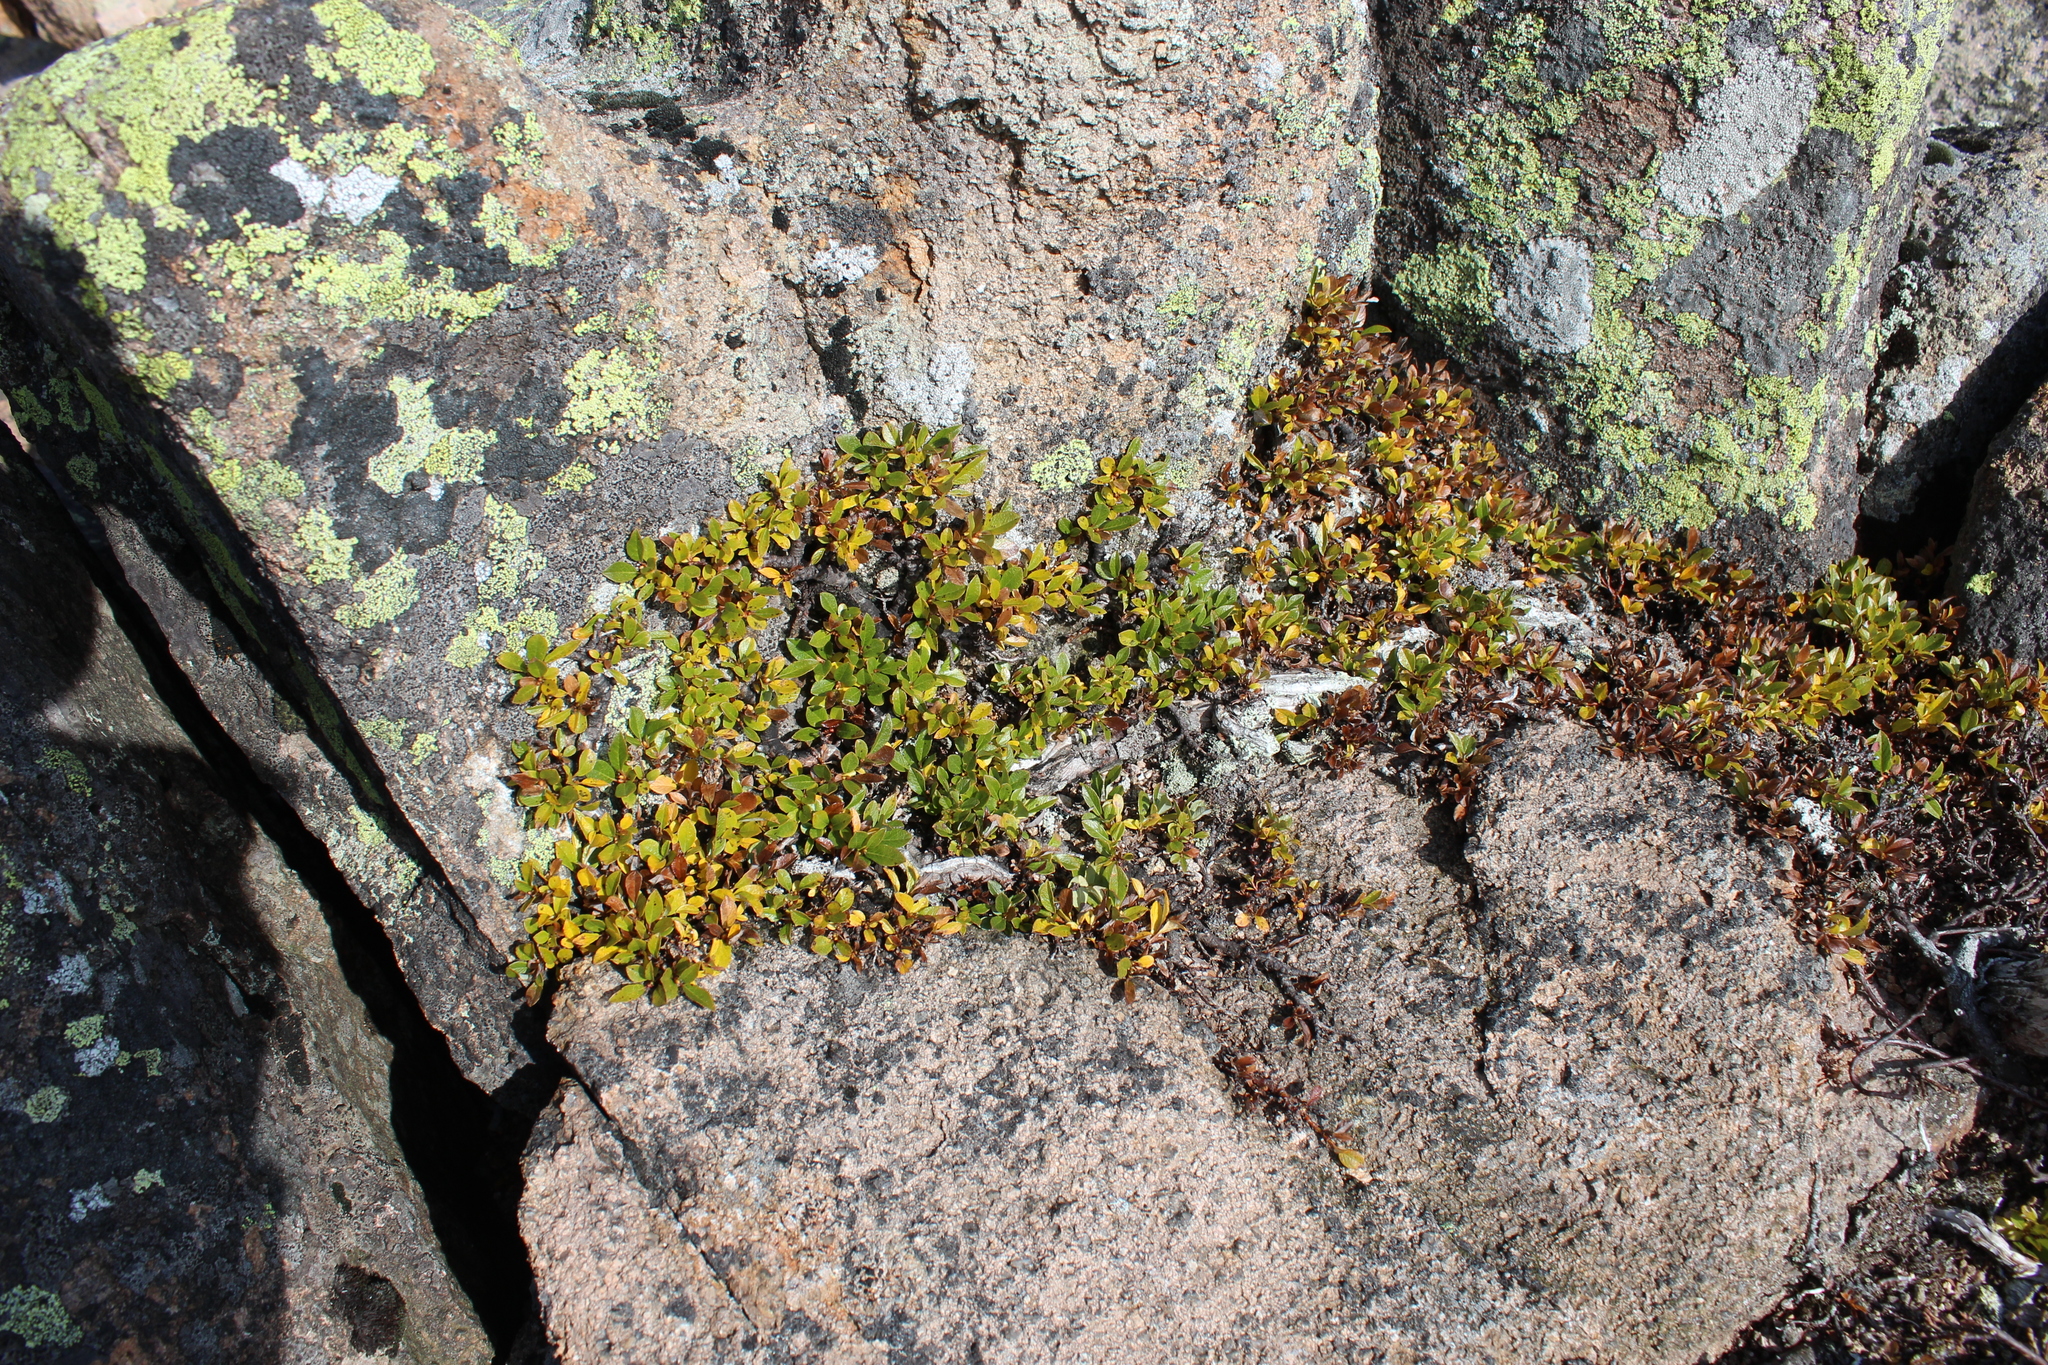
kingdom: Plantae
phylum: Tracheophyta
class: Magnoliopsida
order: Malpighiales
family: Salicaceae
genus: Salix
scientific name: Salix uva-ursi
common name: Bearberry willow
